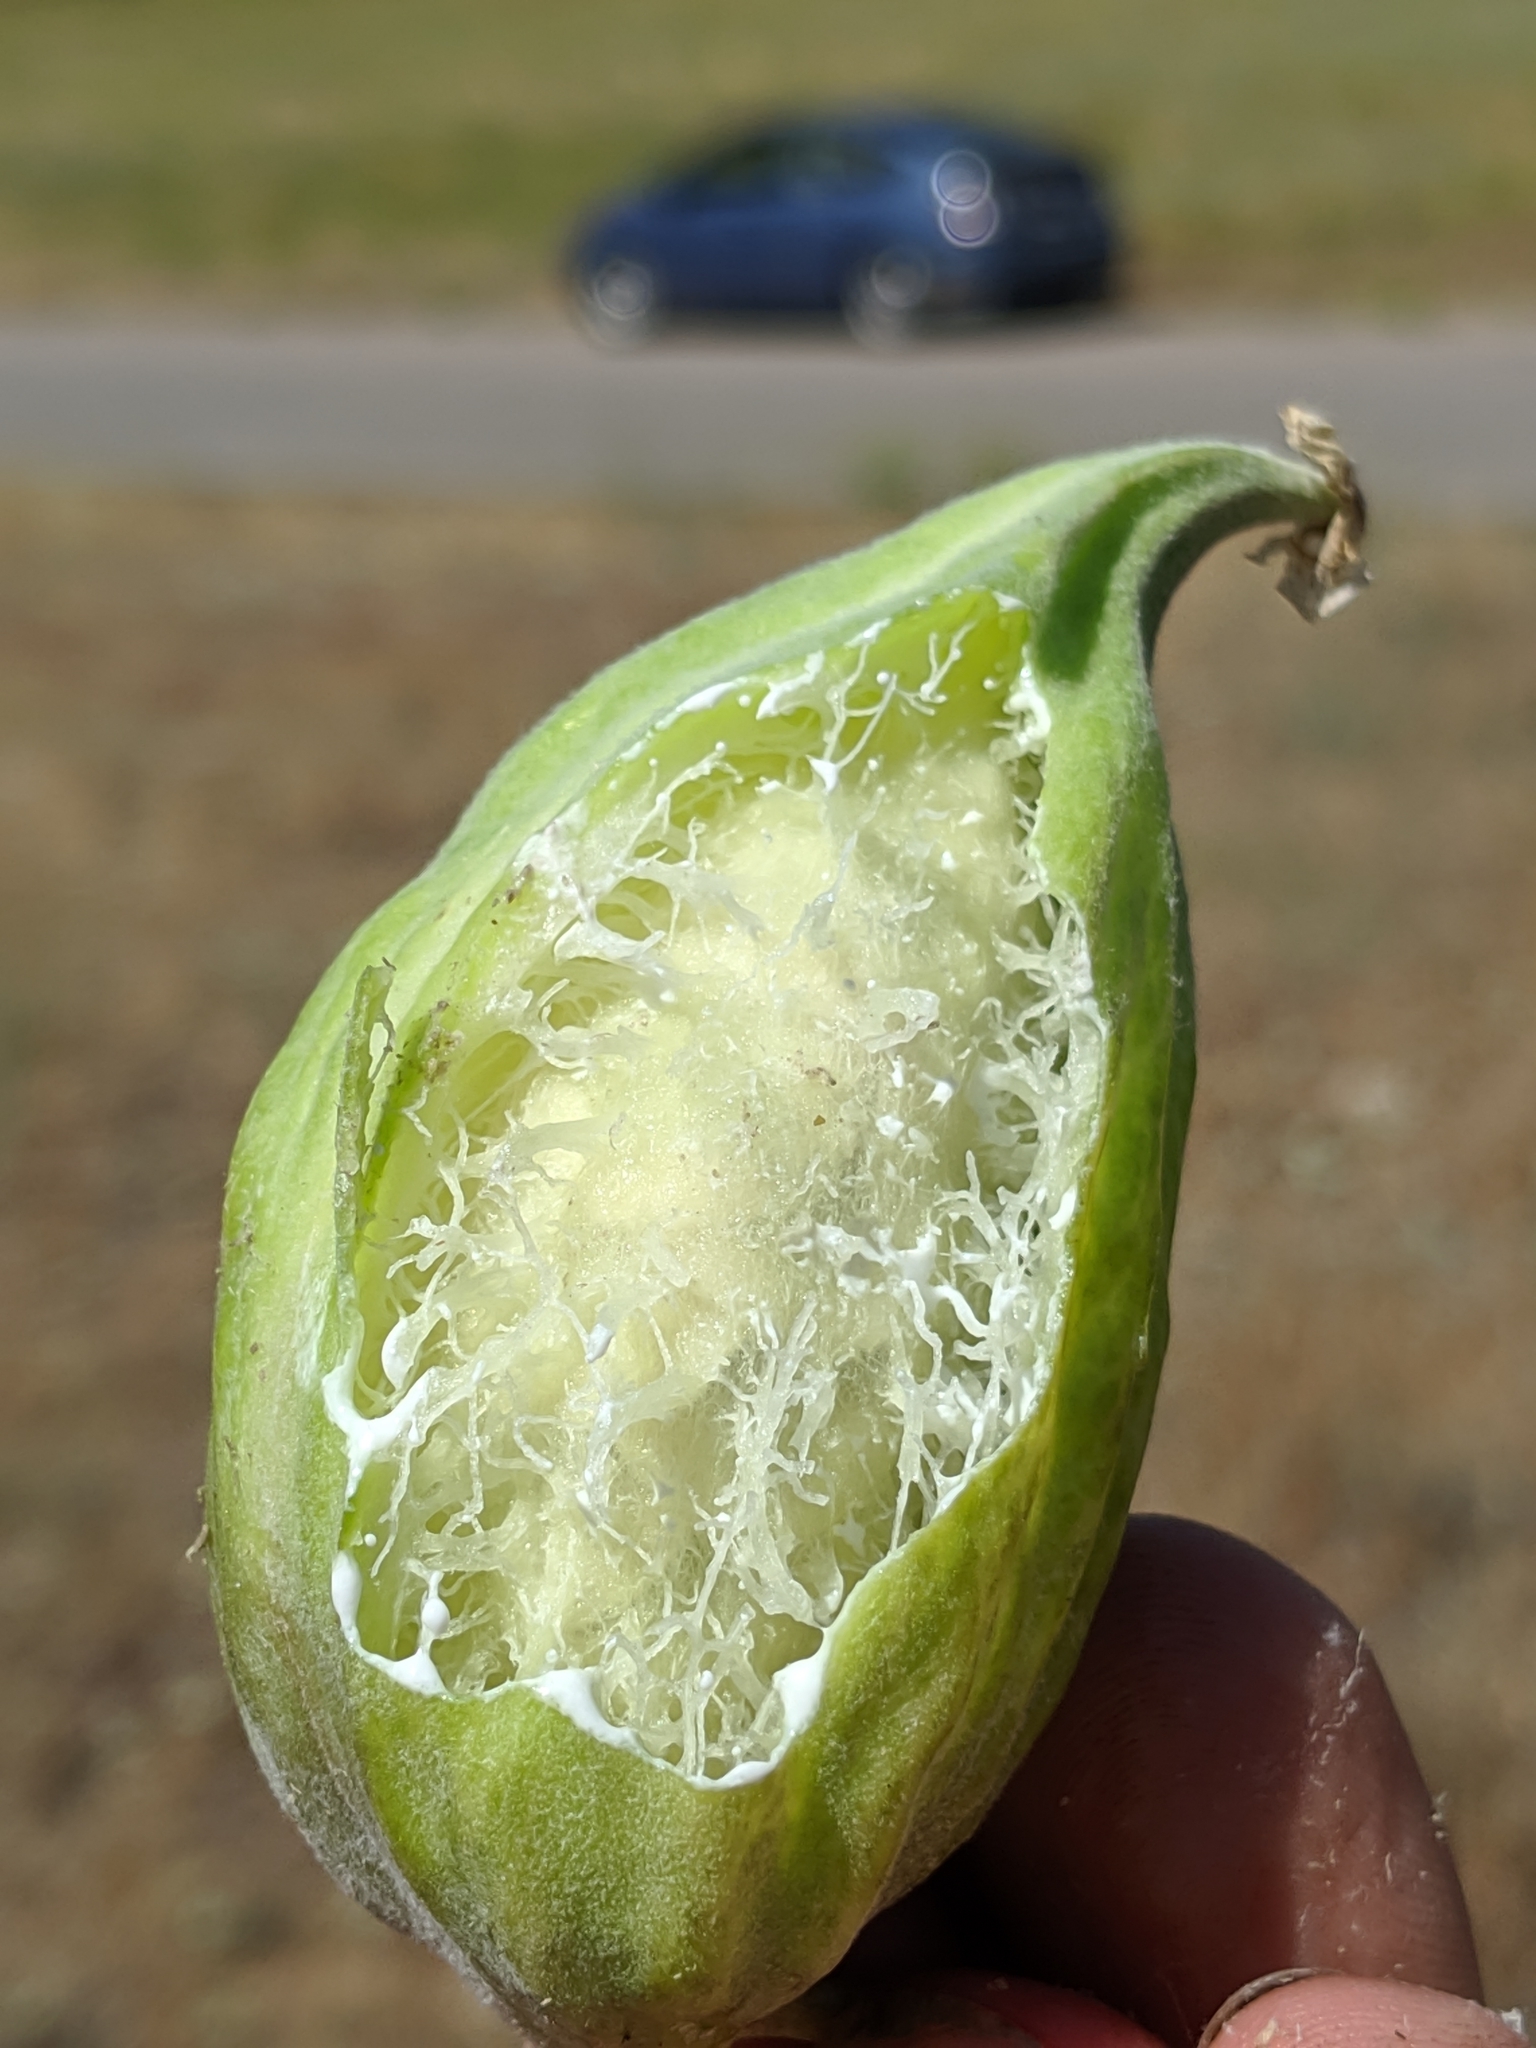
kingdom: Plantae
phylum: Tracheophyta
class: Magnoliopsida
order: Gentianales
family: Apocynaceae
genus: Asclepias
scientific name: Asclepias vestita
